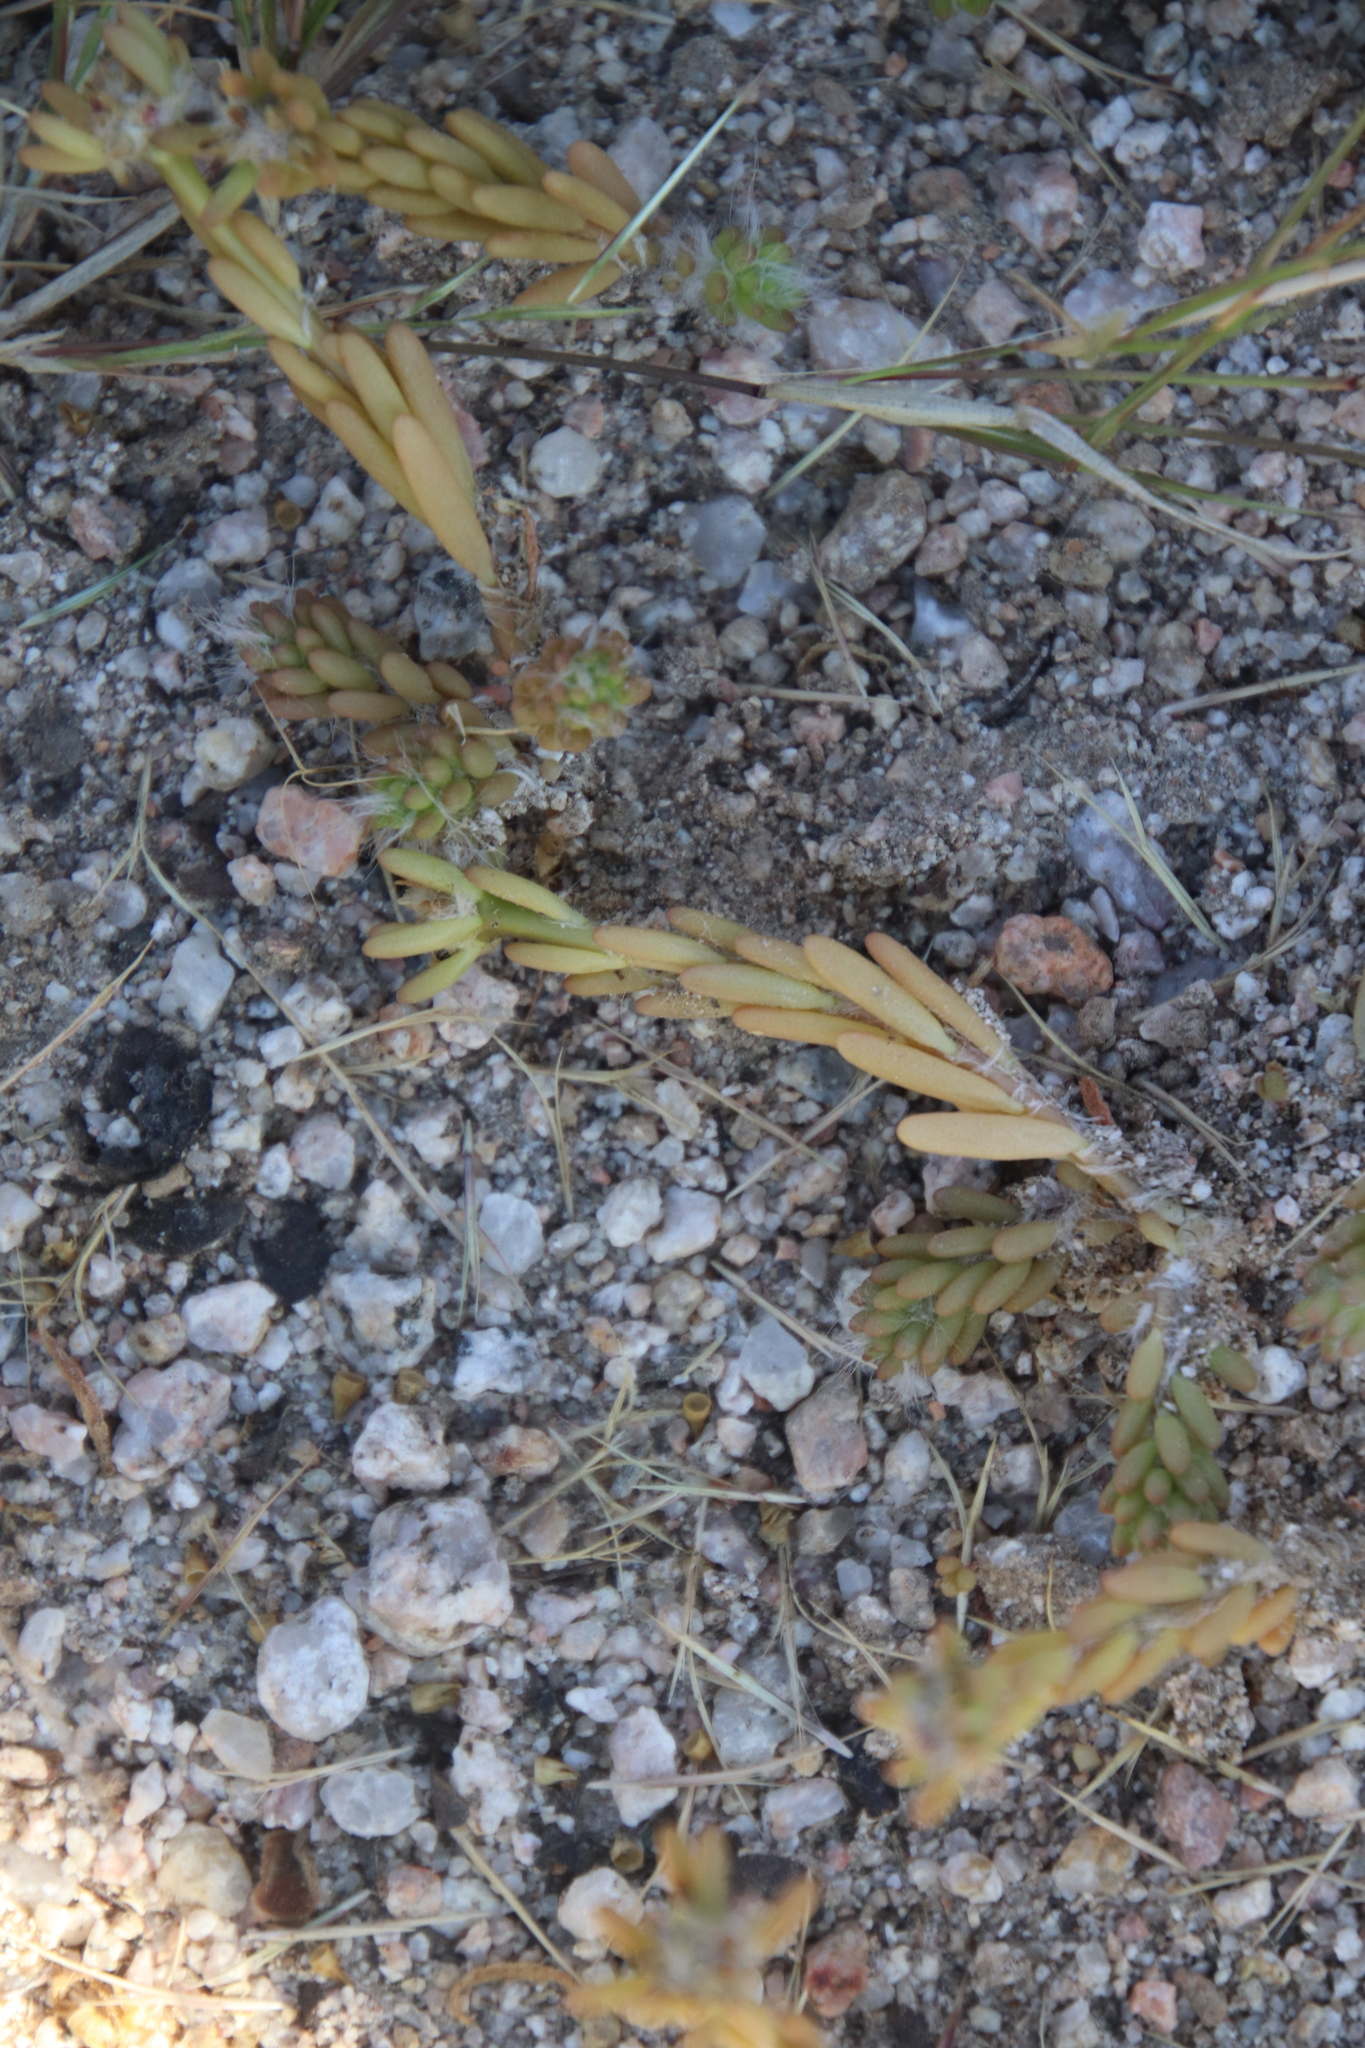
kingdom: Plantae
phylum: Tracheophyta
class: Magnoliopsida
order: Caryophyllales
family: Portulacaceae
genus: Portulaca
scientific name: Portulaca californica
